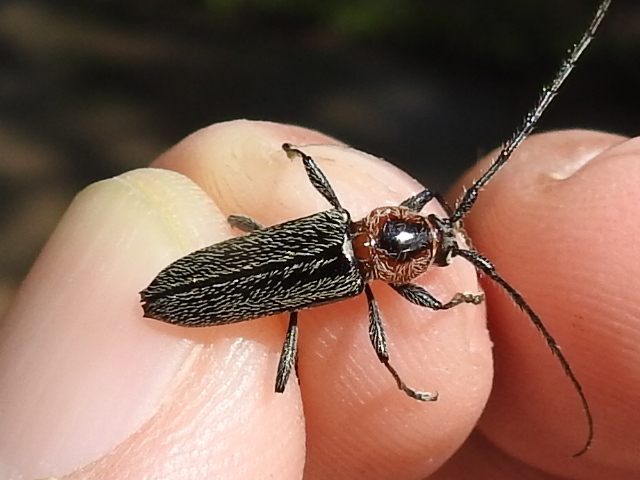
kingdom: Animalia
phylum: Arthropoda
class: Insecta
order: Coleoptera
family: Cerambycidae
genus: Stenosphenus
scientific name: Stenosphenus notatus
